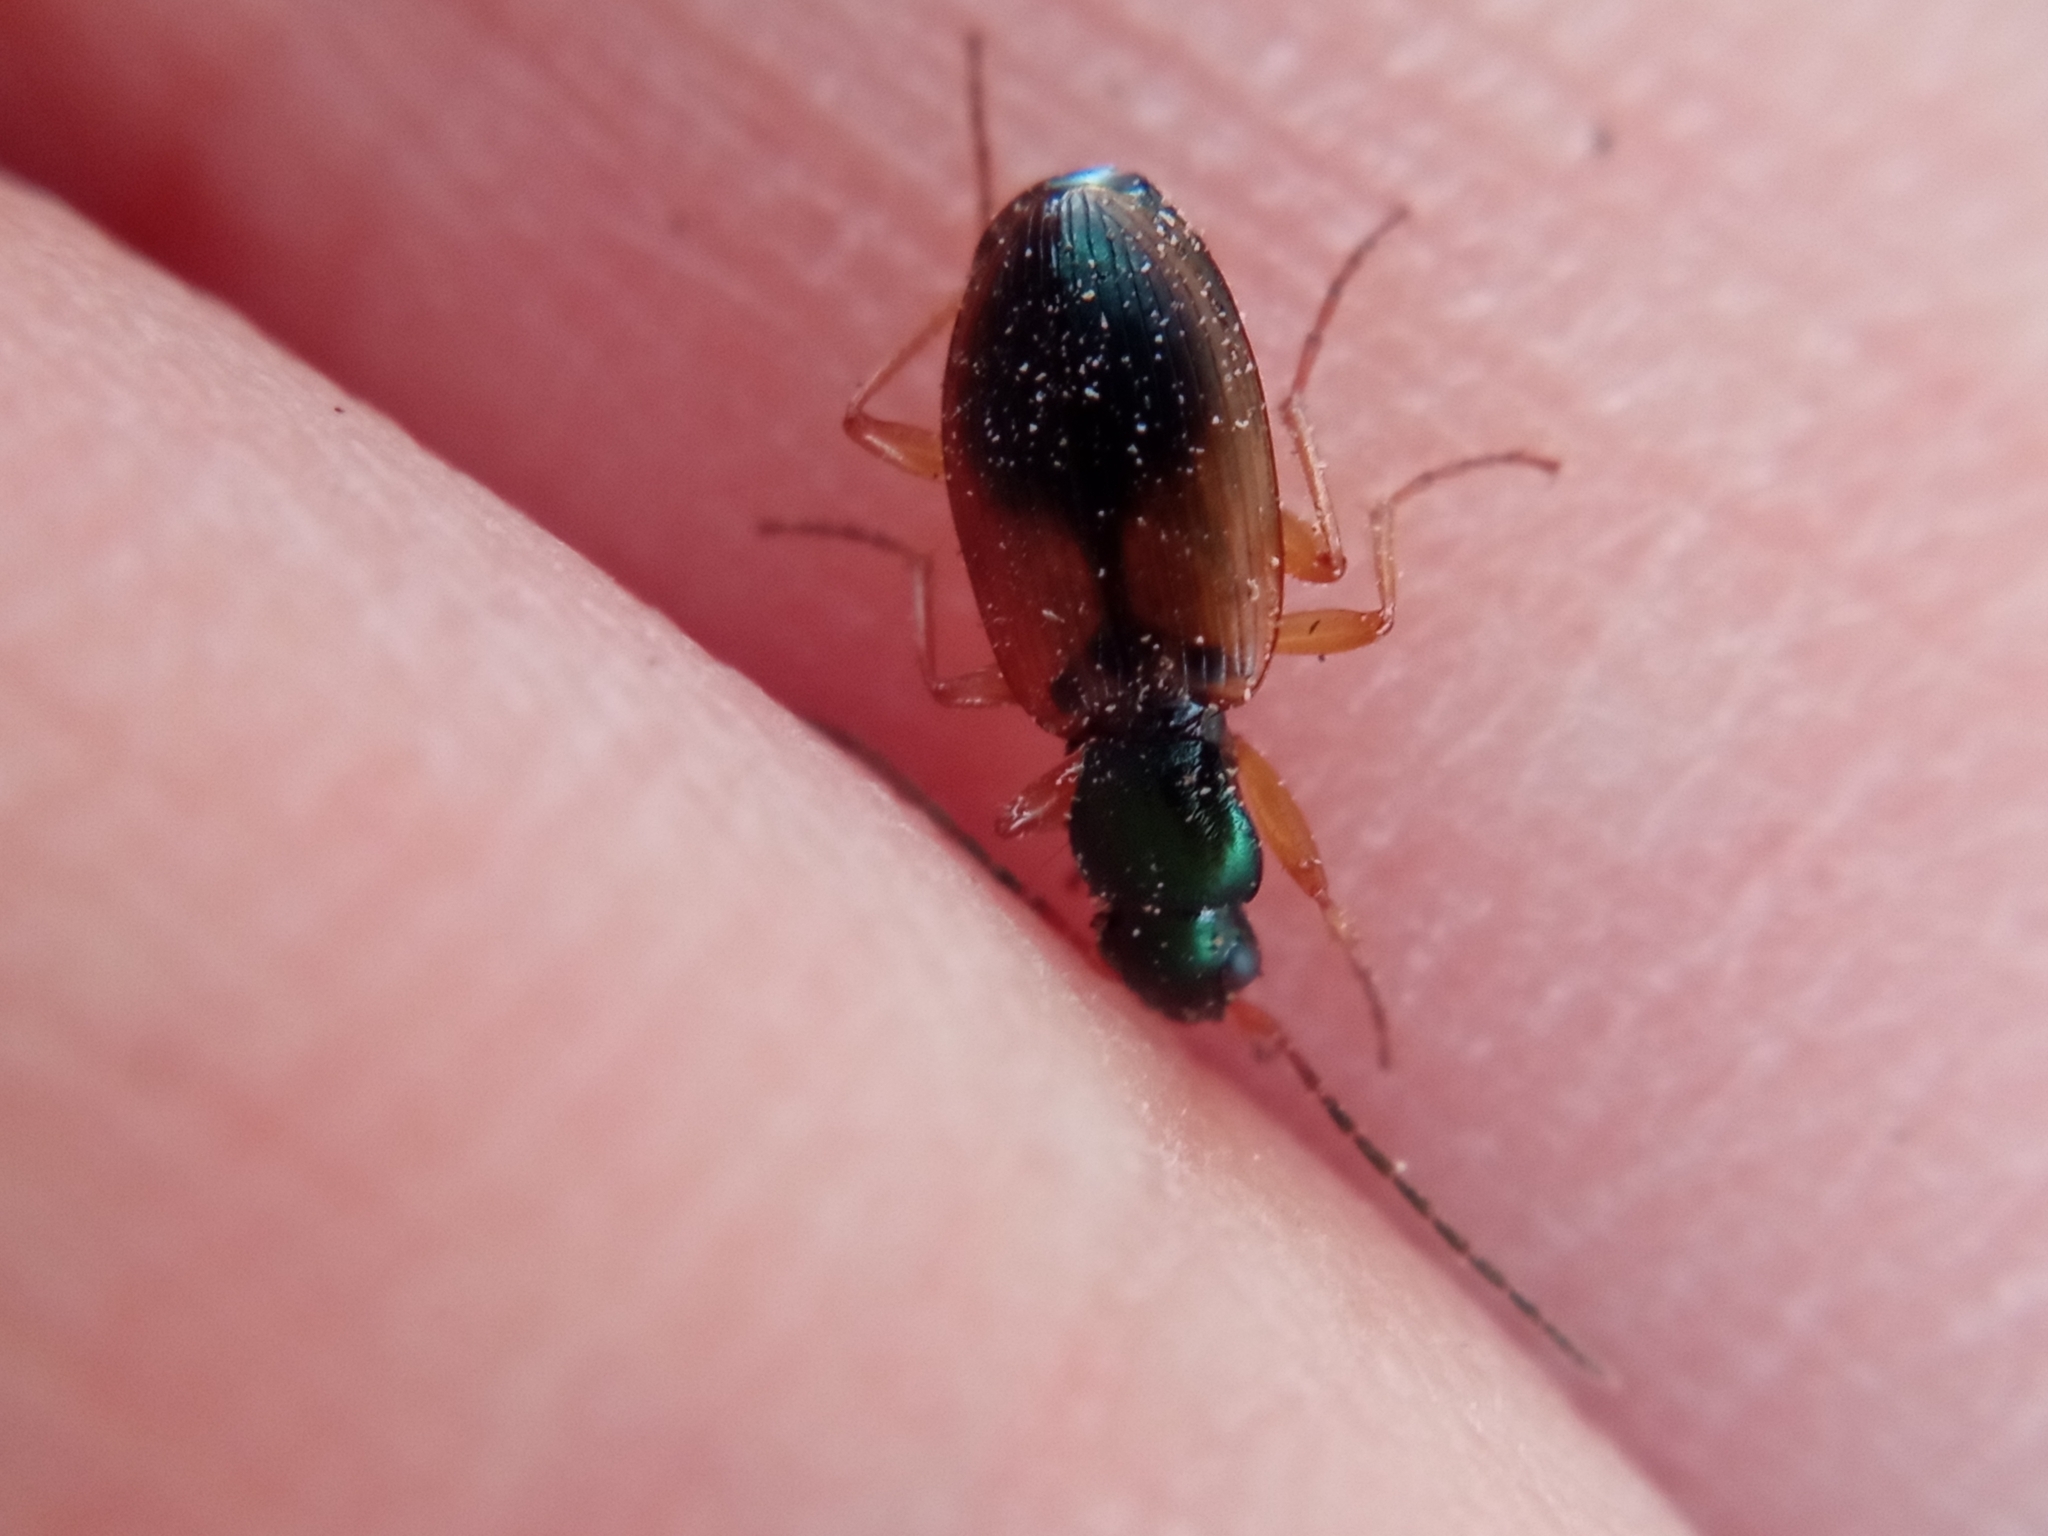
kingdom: Animalia
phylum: Arthropoda
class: Insecta
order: Coleoptera
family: Carabidae
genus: Anchomenus
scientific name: Anchomenus dorsalis
